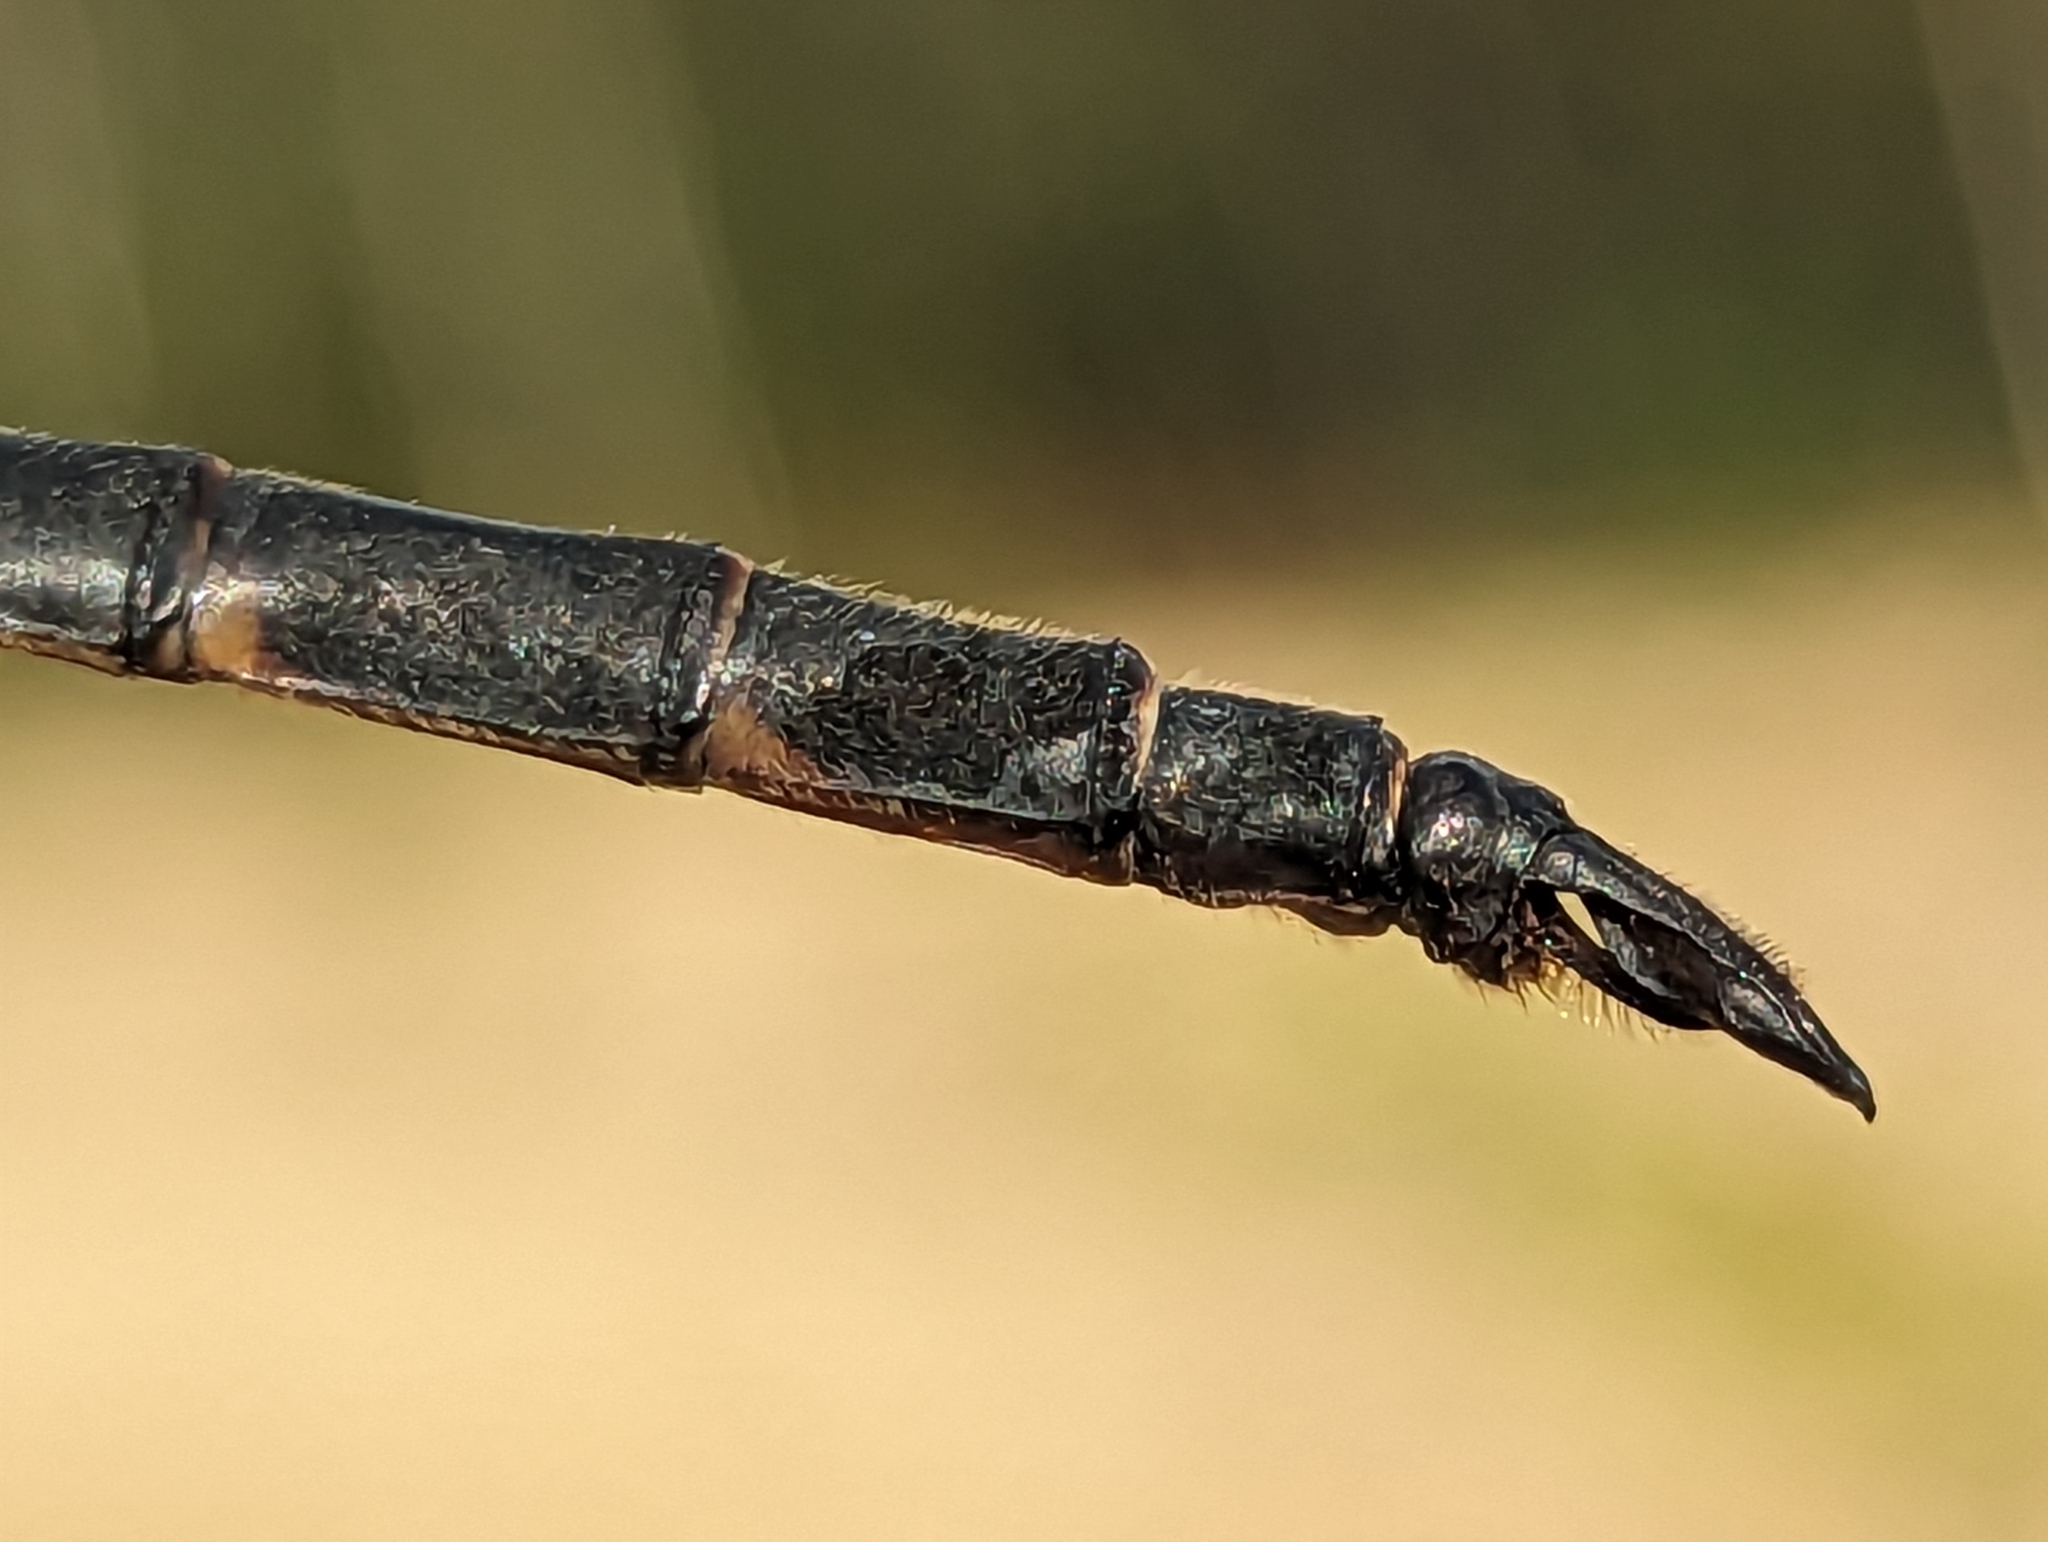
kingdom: Animalia
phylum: Arthropoda
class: Insecta
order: Odonata
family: Corduliidae
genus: Somatochlora
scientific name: Somatochlora incurvata
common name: Incurvate emerald
